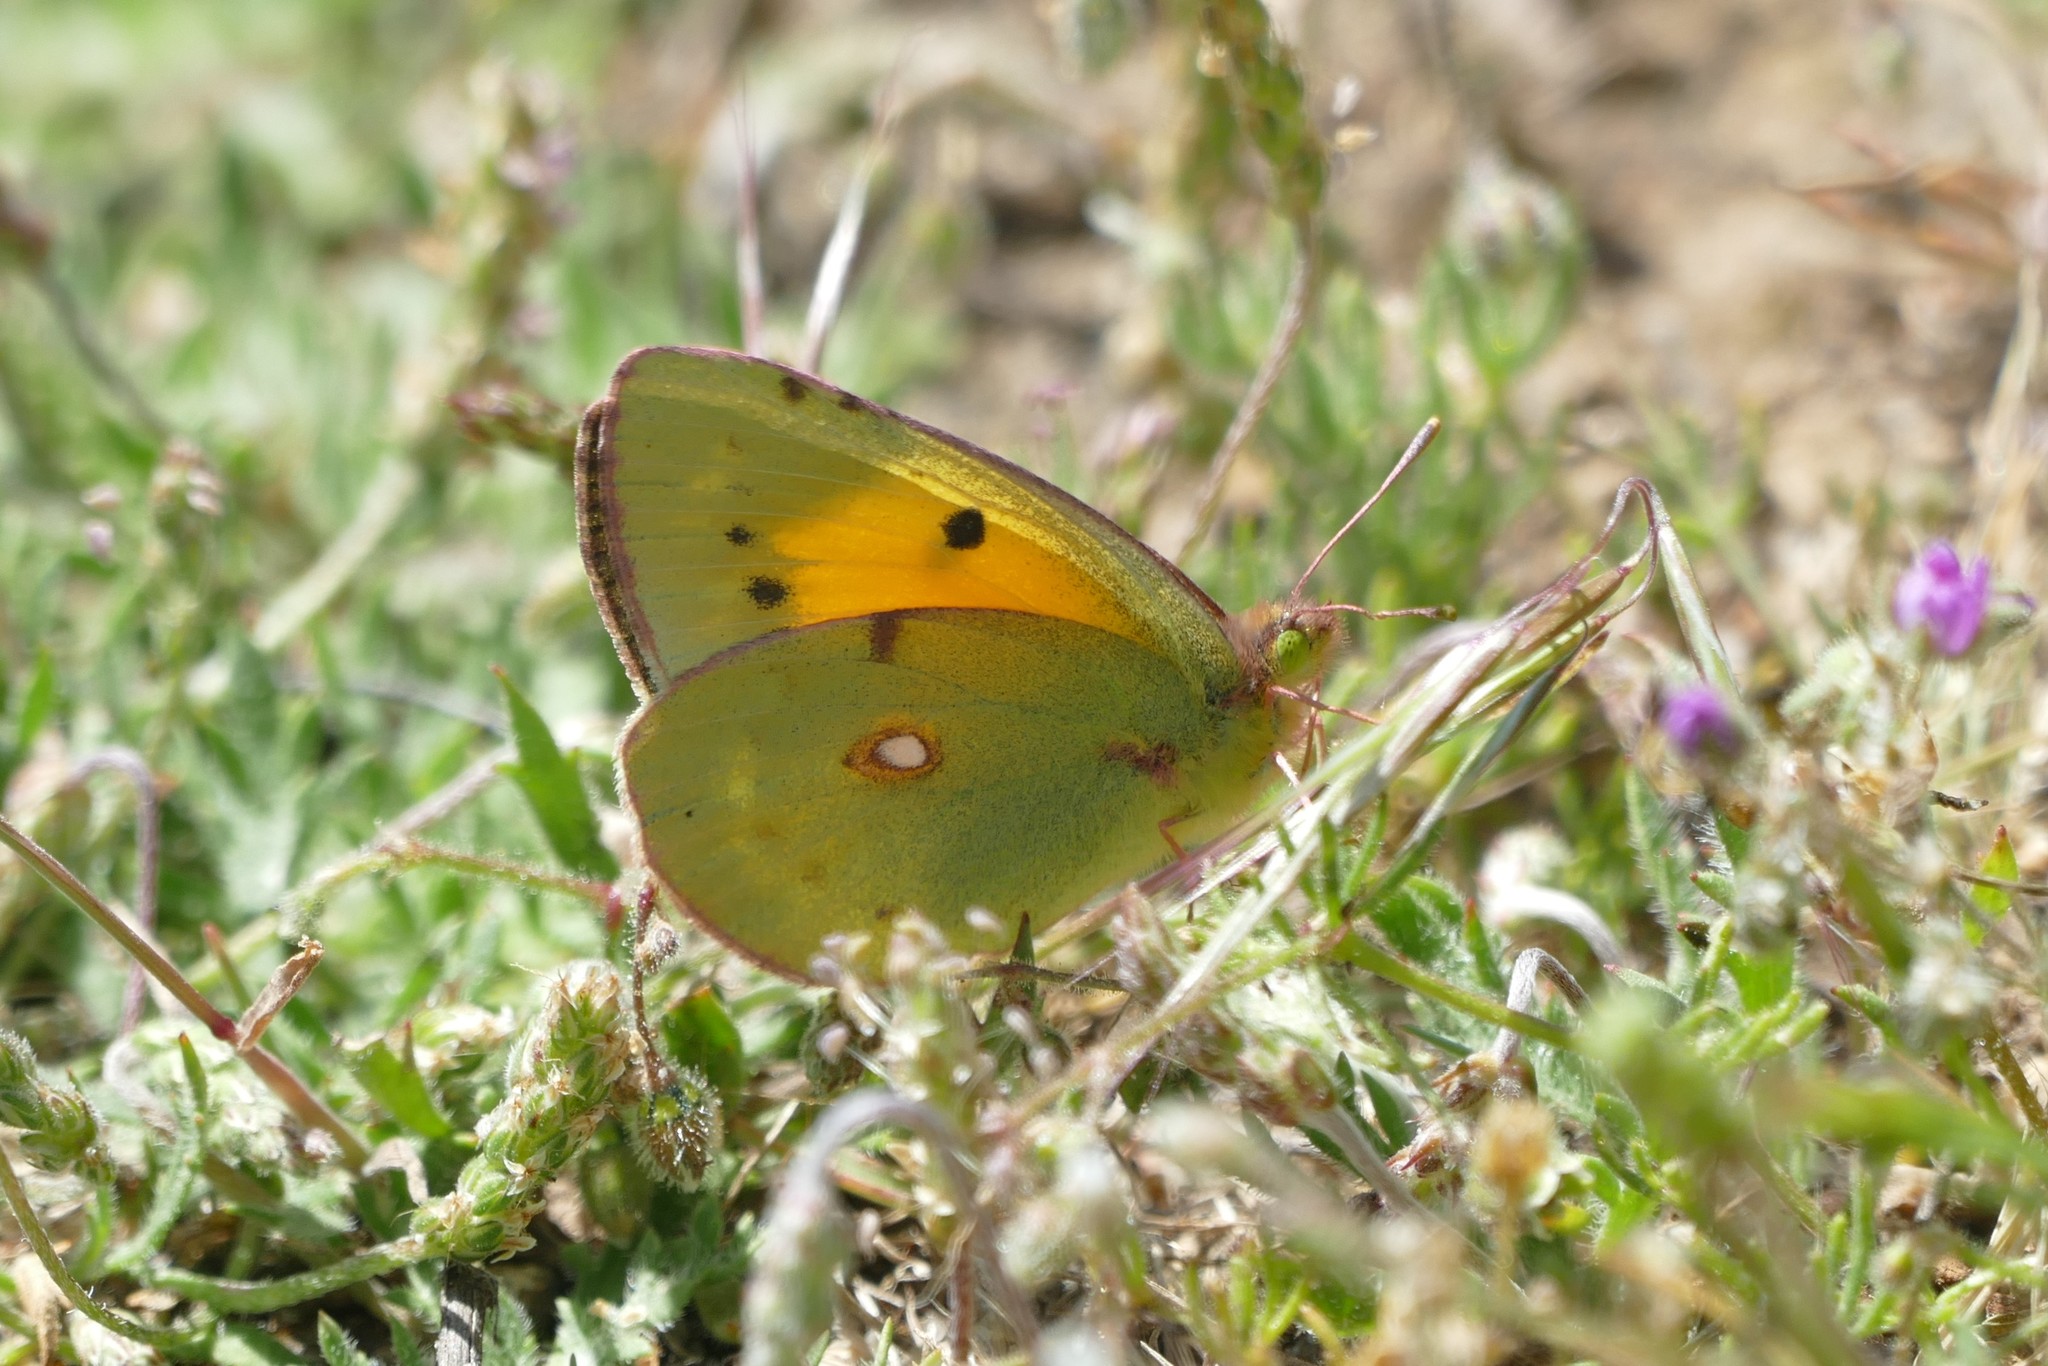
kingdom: Animalia
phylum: Arthropoda
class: Insecta
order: Lepidoptera
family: Pieridae
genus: Colias
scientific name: Colias croceus
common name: Clouded yellow
